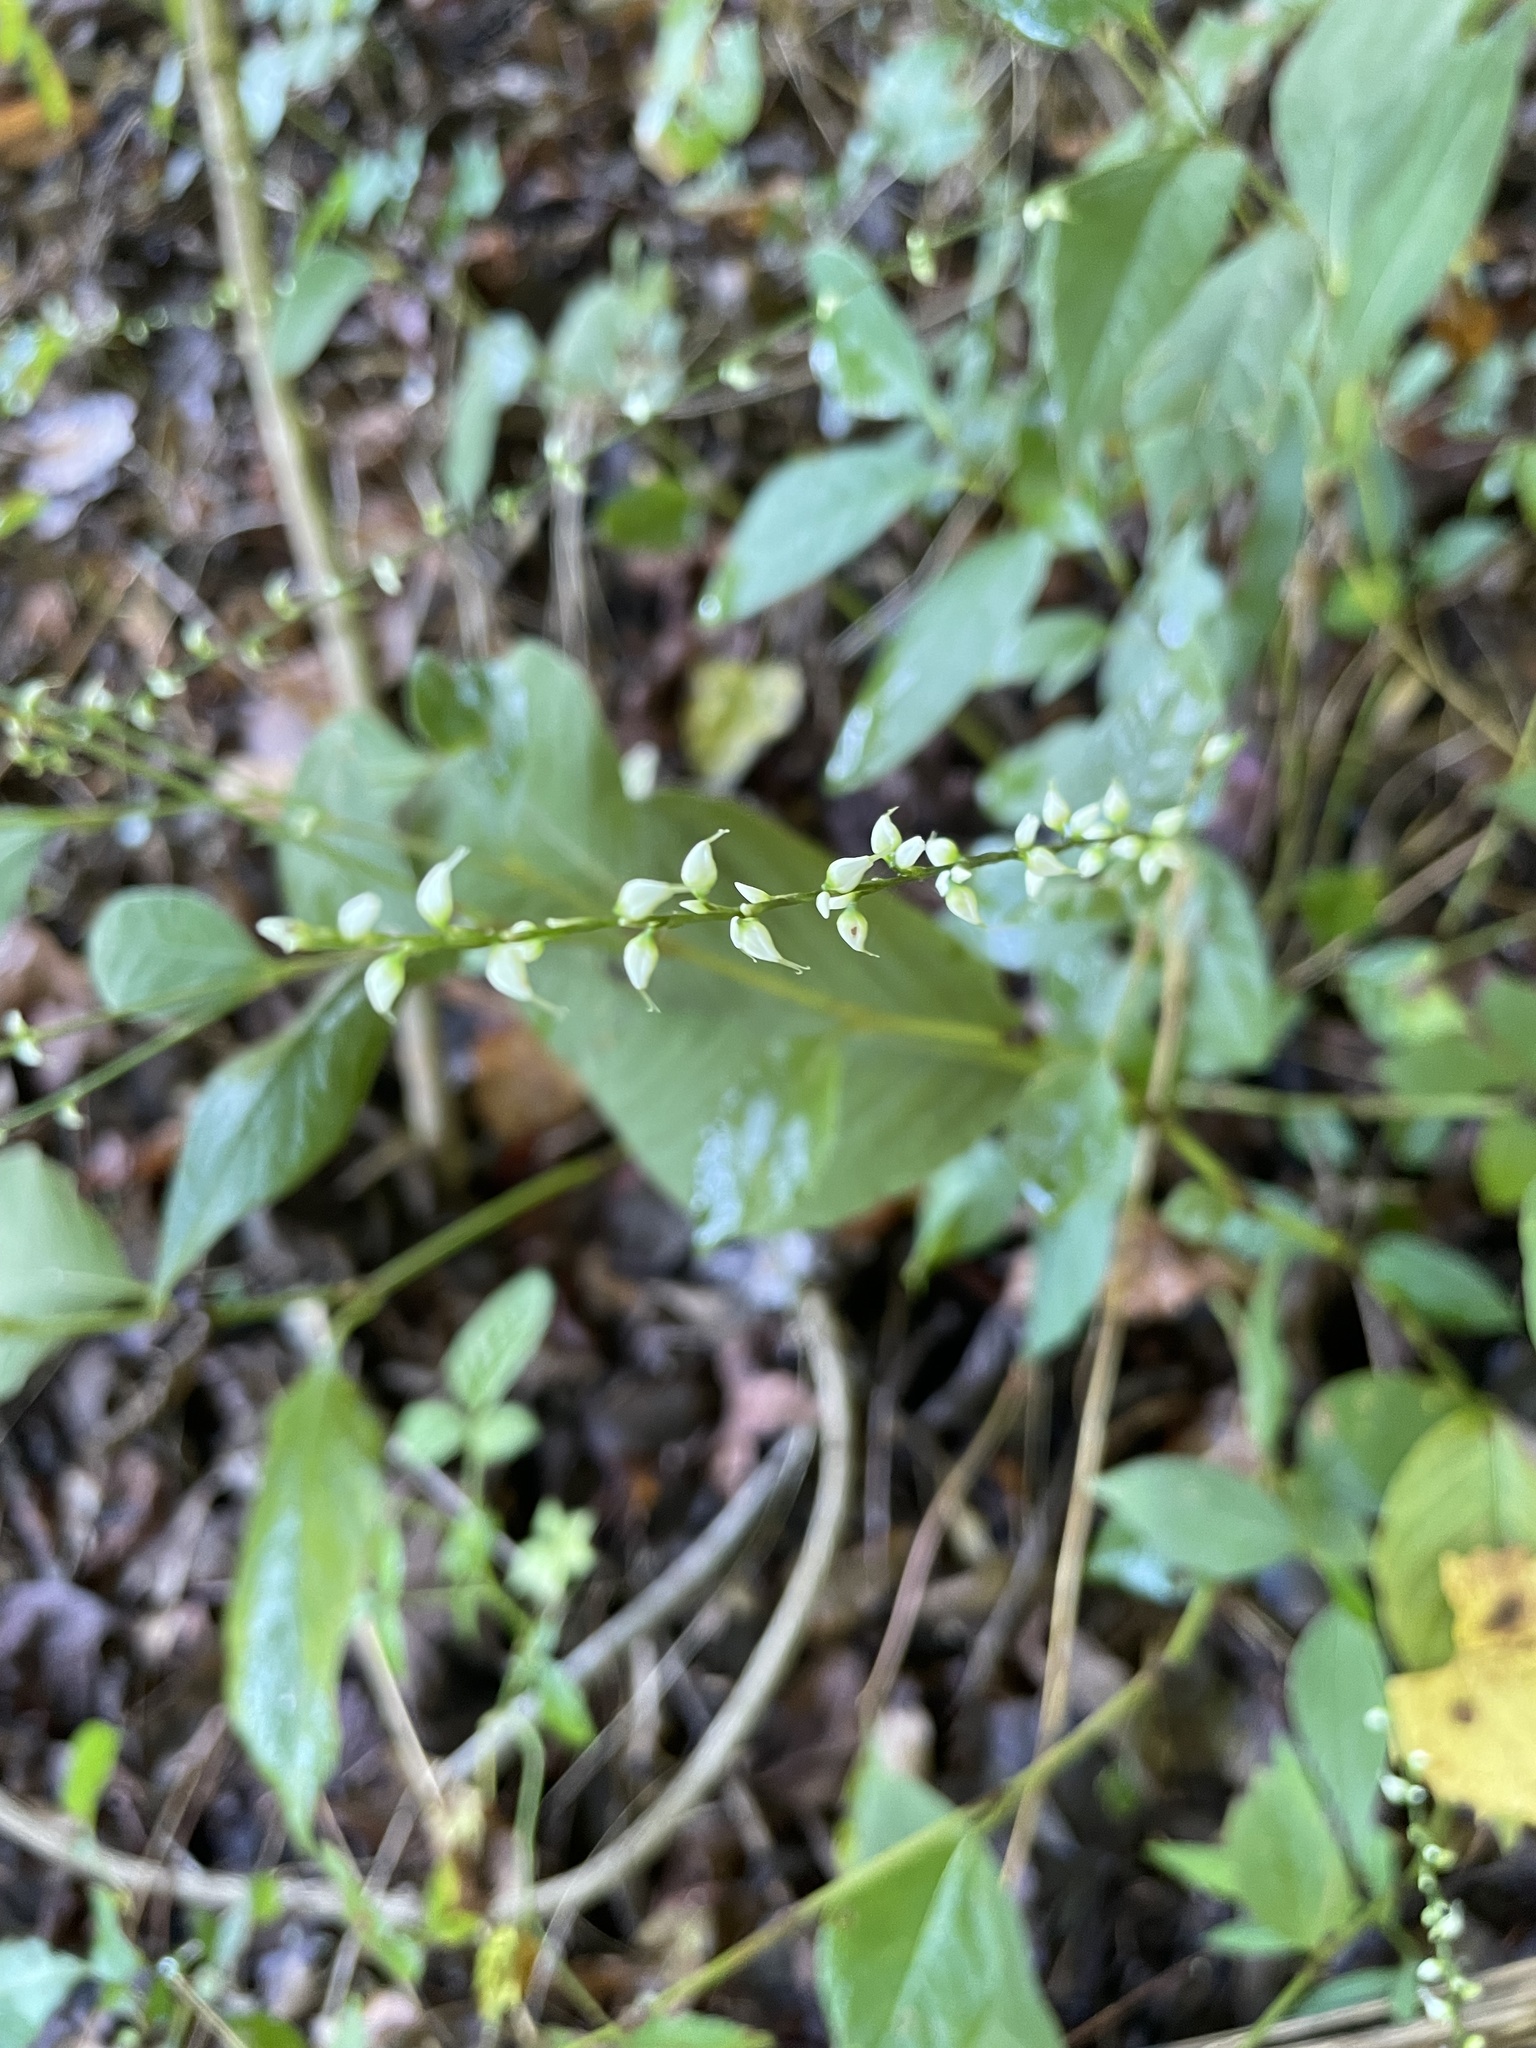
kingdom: Plantae
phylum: Tracheophyta
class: Magnoliopsida
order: Caryophyllales
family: Polygonaceae
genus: Persicaria
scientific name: Persicaria virginiana
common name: Jumpseed
